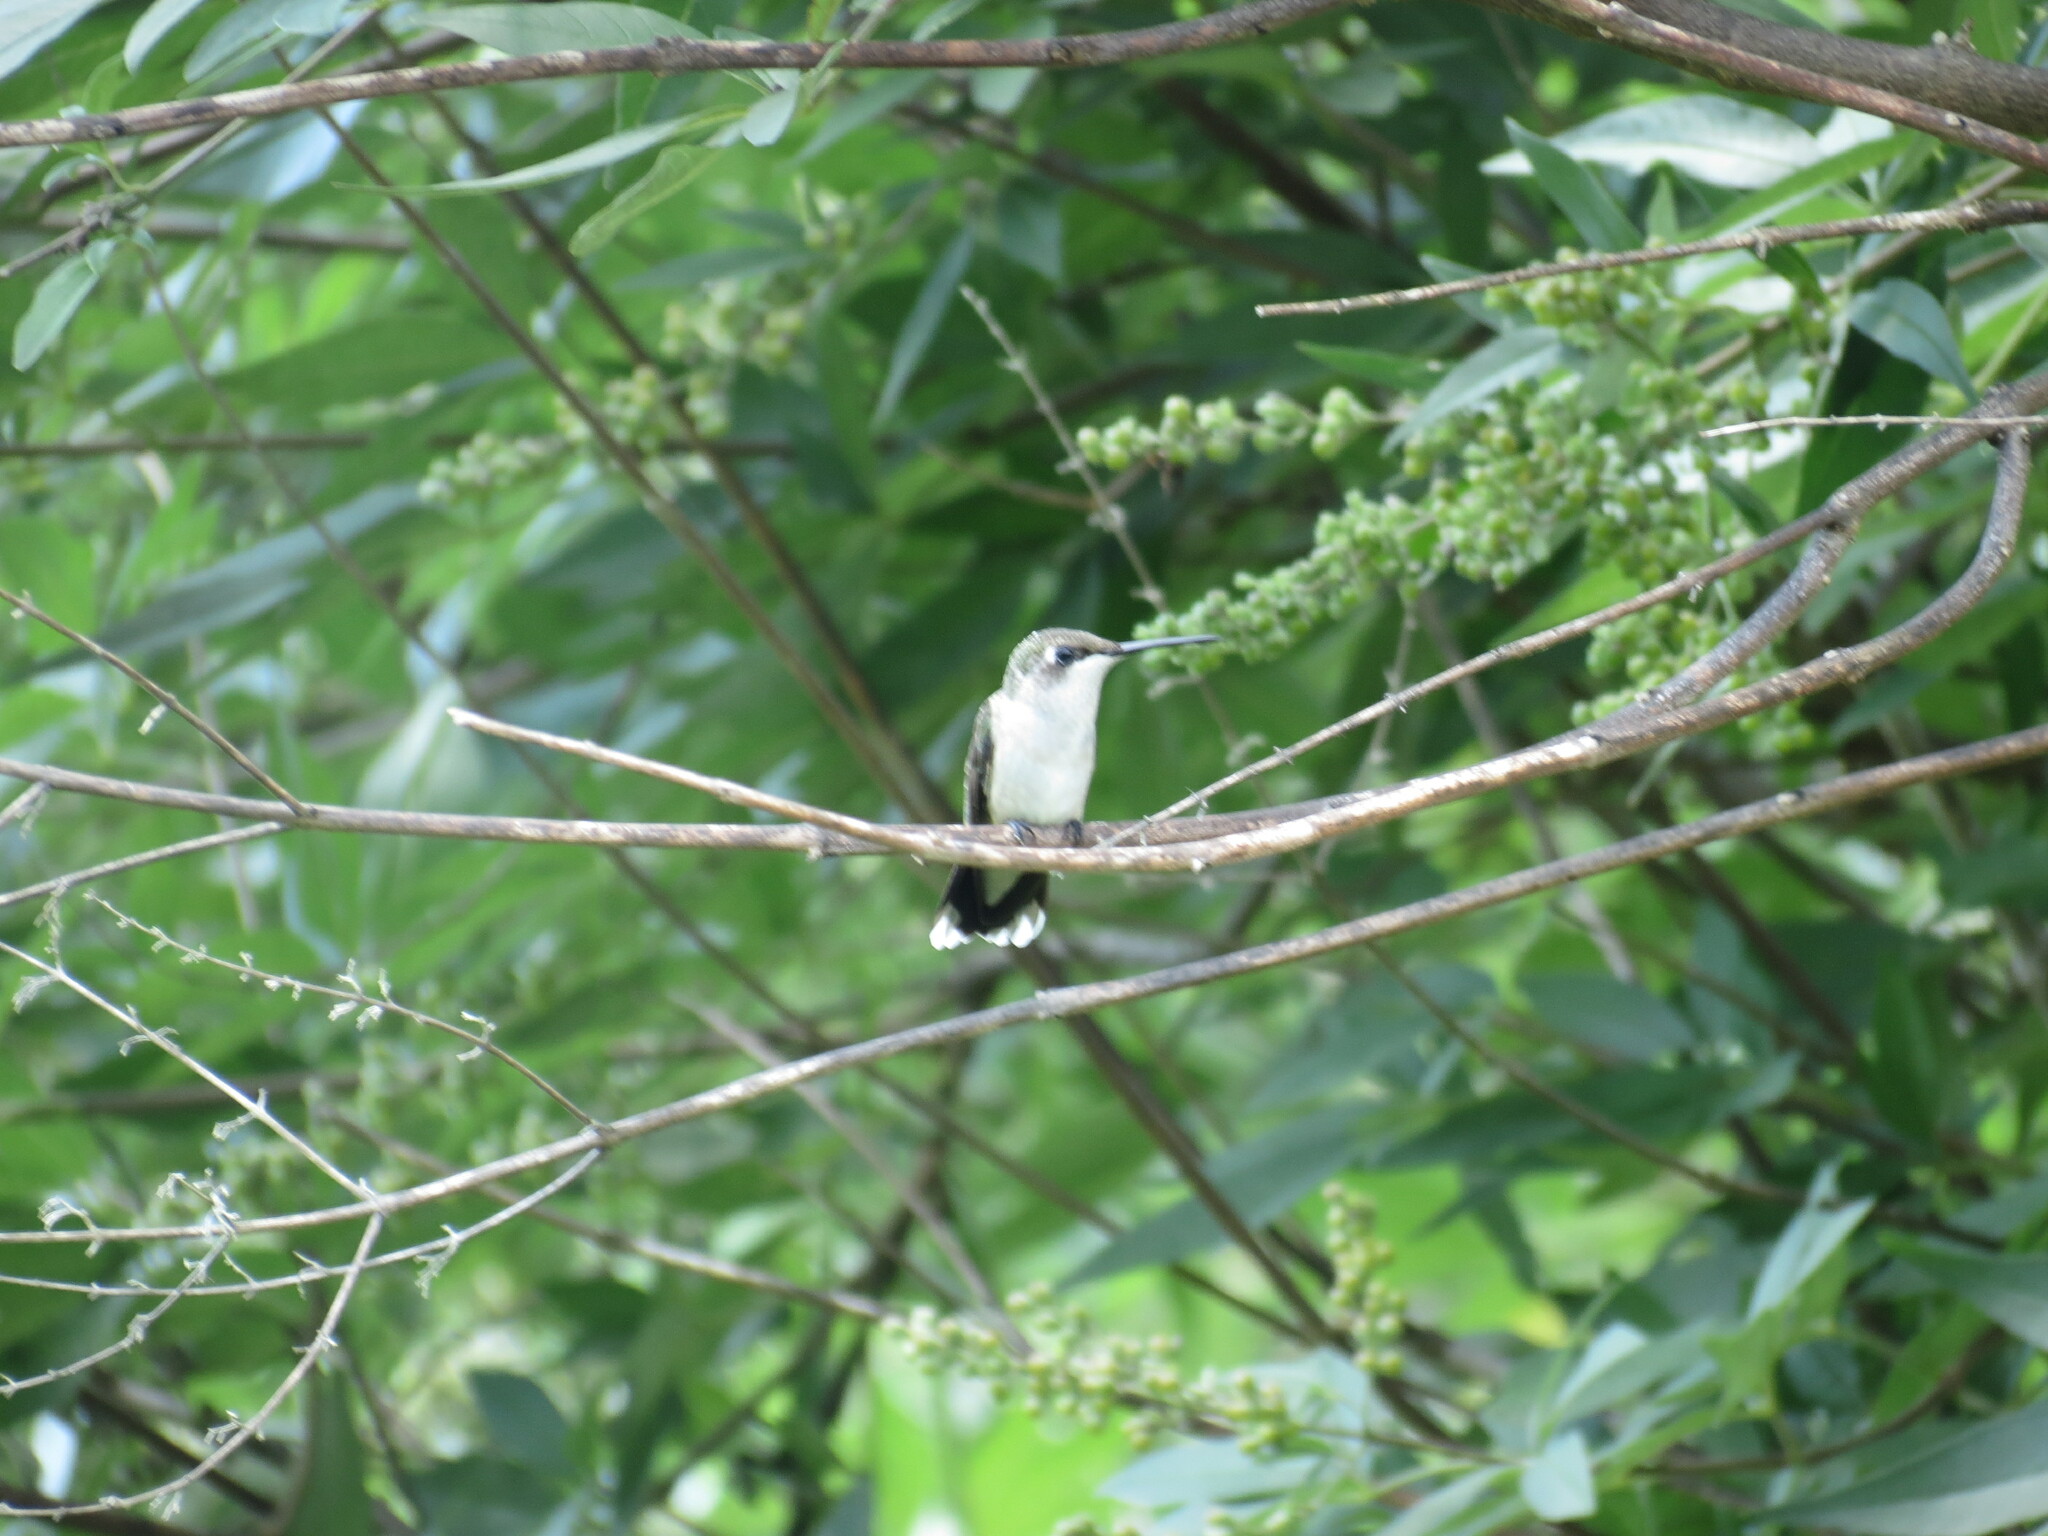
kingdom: Animalia
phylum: Chordata
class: Aves
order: Apodiformes
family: Trochilidae
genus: Archilochus
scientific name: Archilochus colubris
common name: Ruby-throated hummingbird
